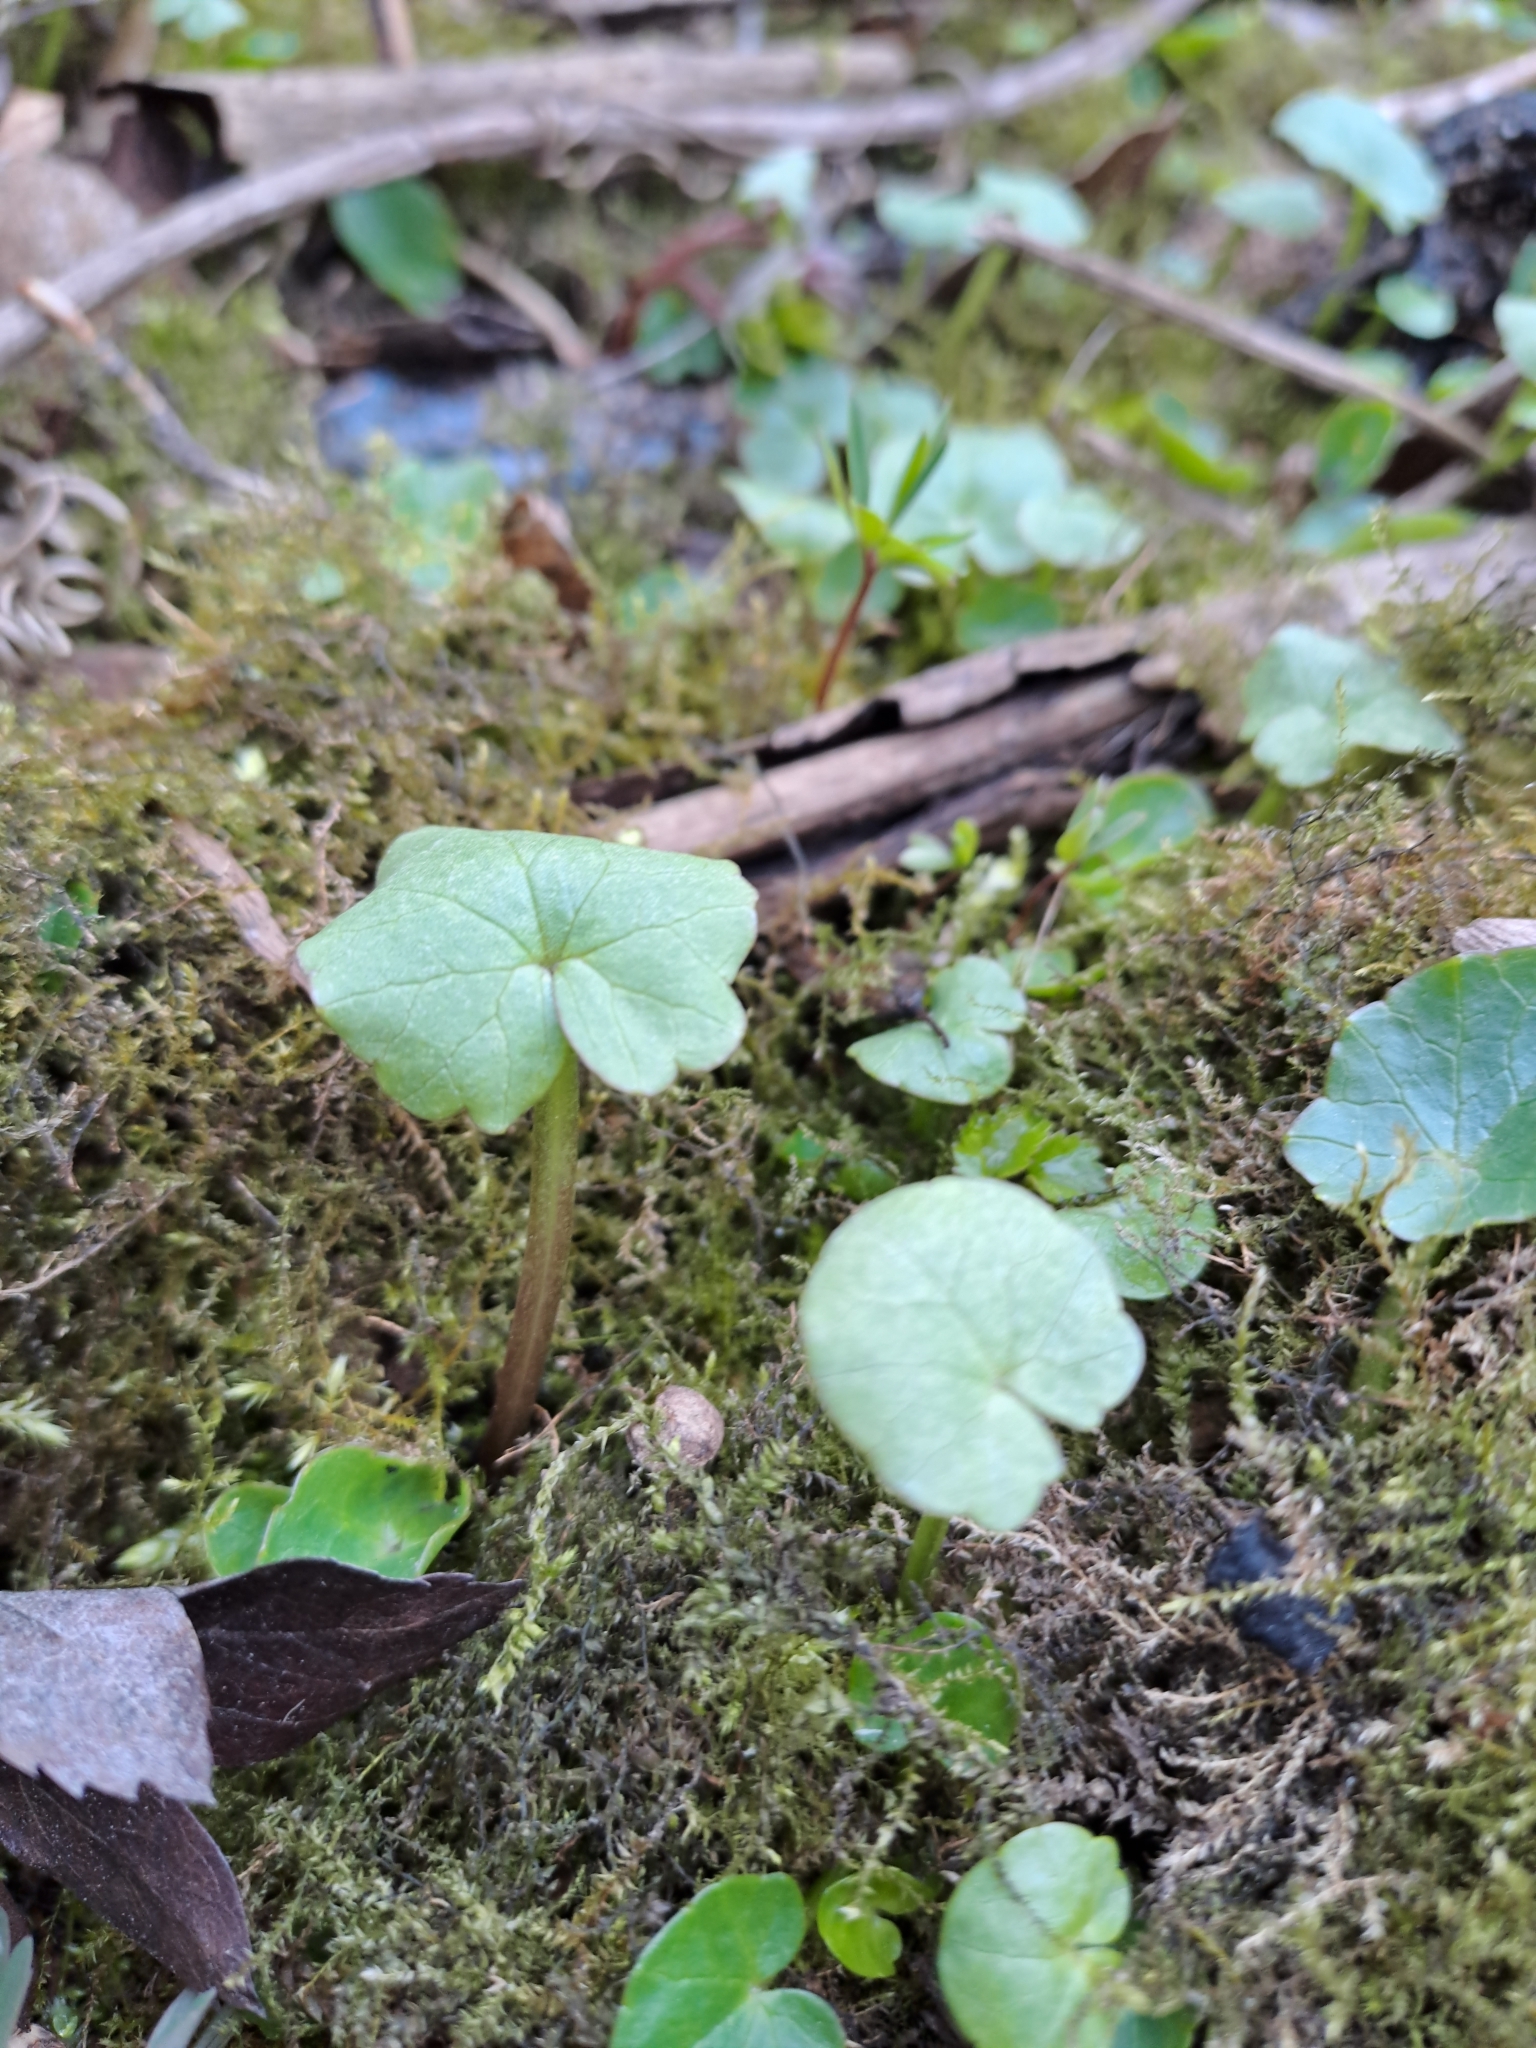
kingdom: Plantae
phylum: Tracheophyta
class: Magnoliopsida
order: Ranunculales
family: Ranunculaceae
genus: Ficaria
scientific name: Ficaria verna
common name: Lesser celandine
